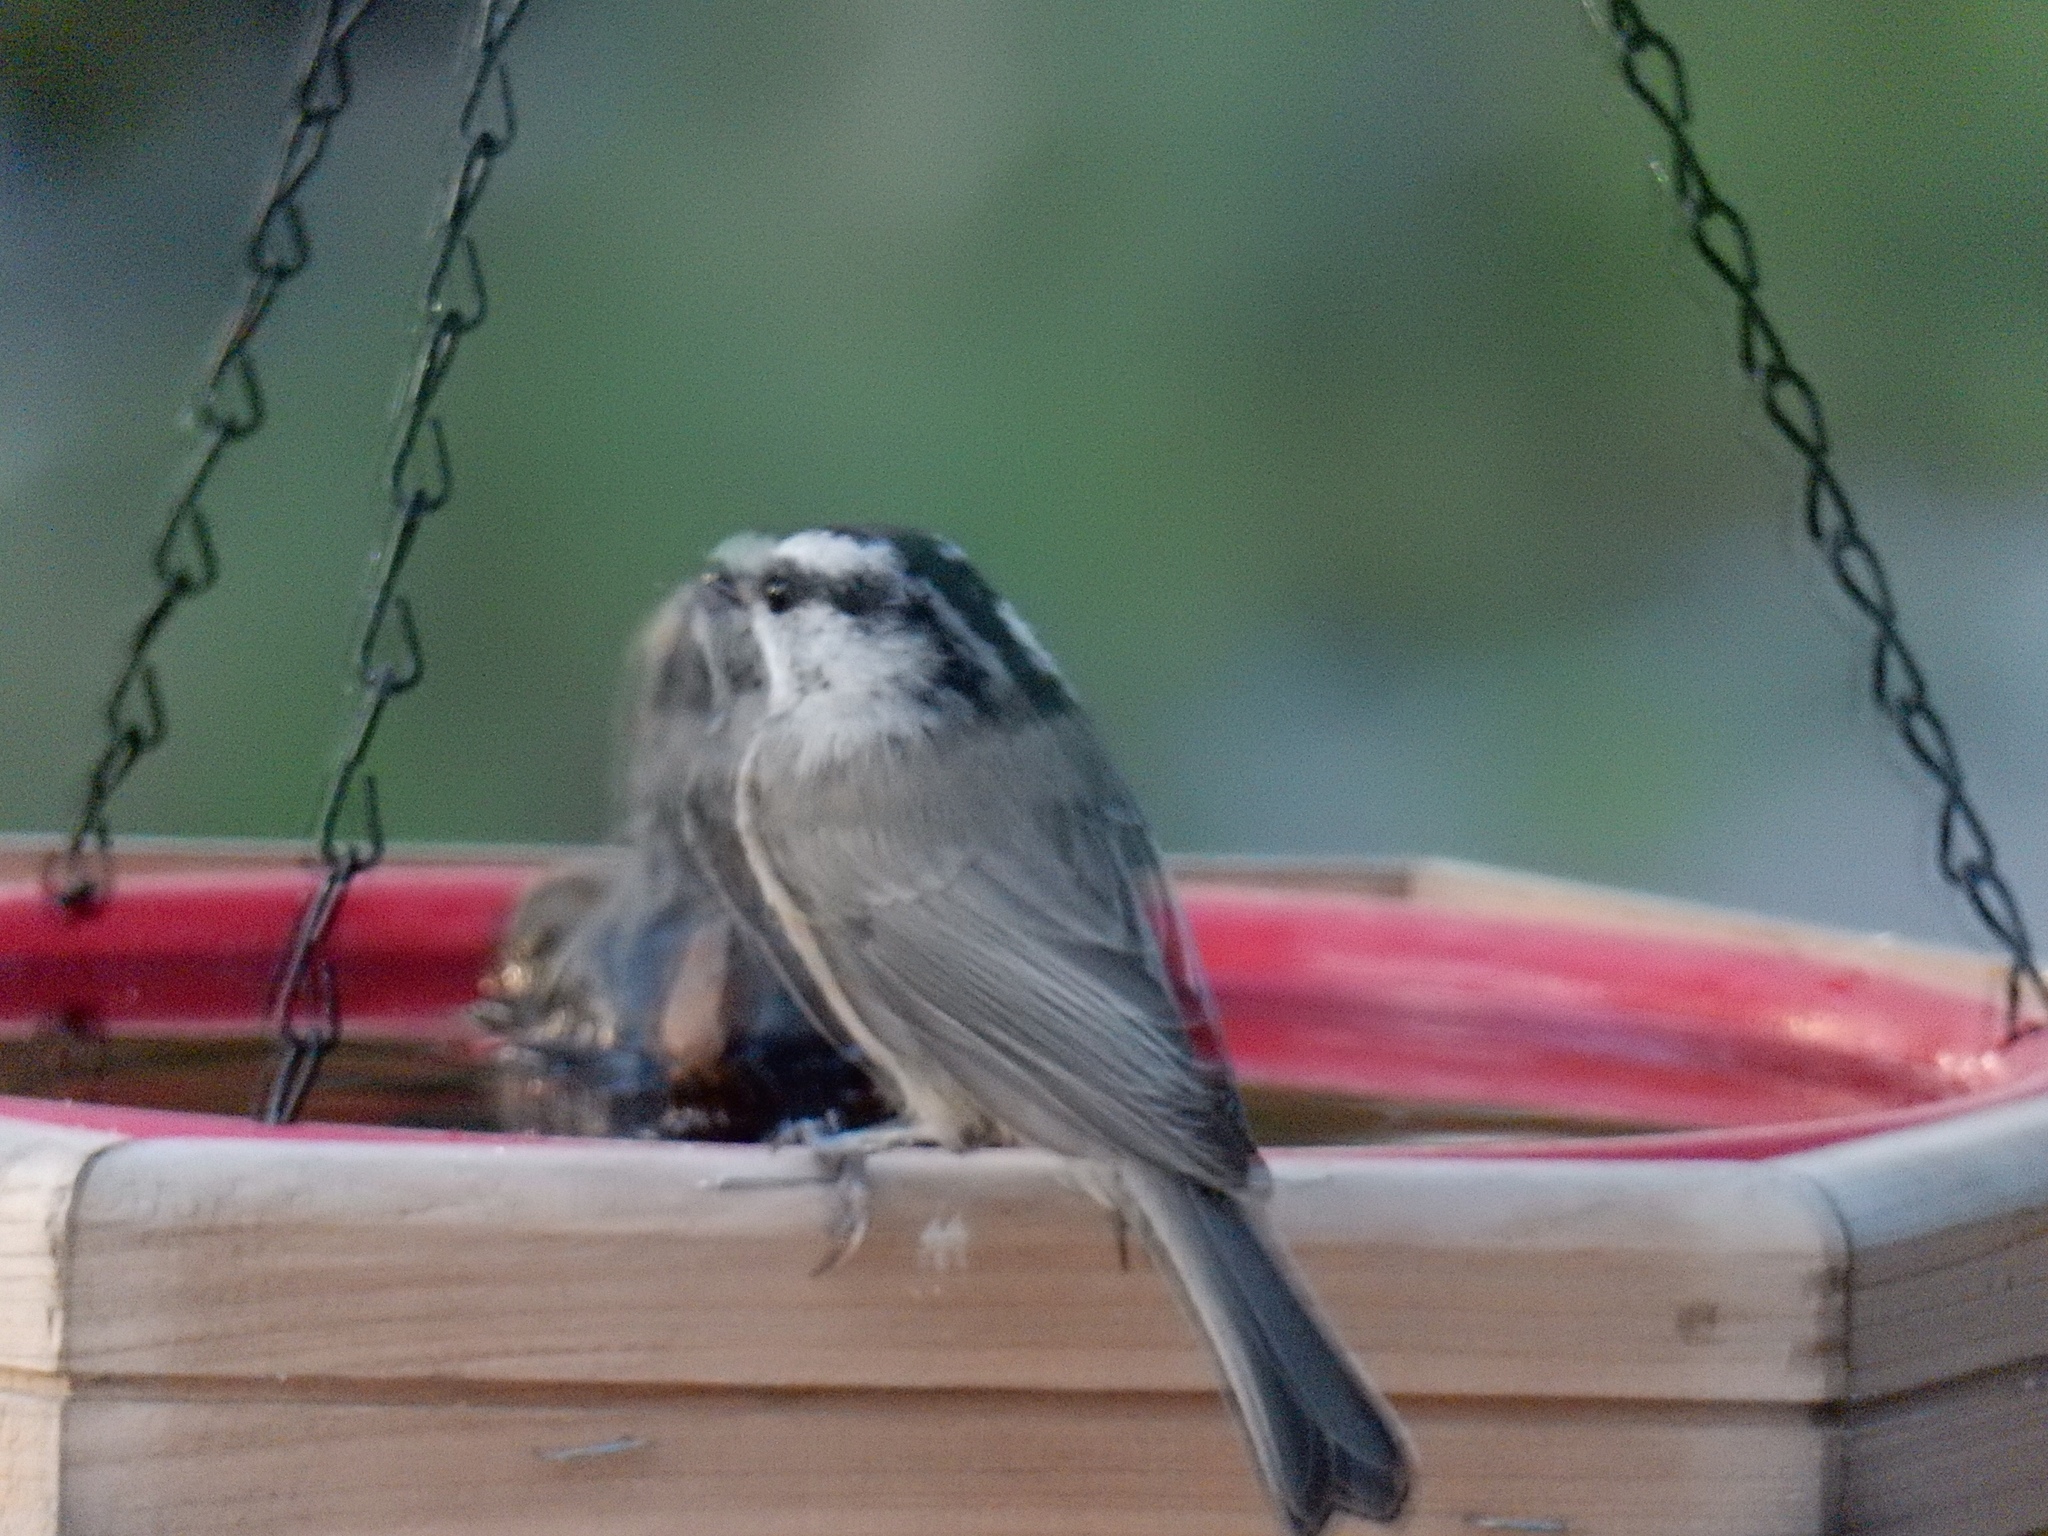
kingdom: Animalia
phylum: Chordata
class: Aves
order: Passeriformes
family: Paridae
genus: Poecile
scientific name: Poecile gambeli
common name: Mountain chickadee
